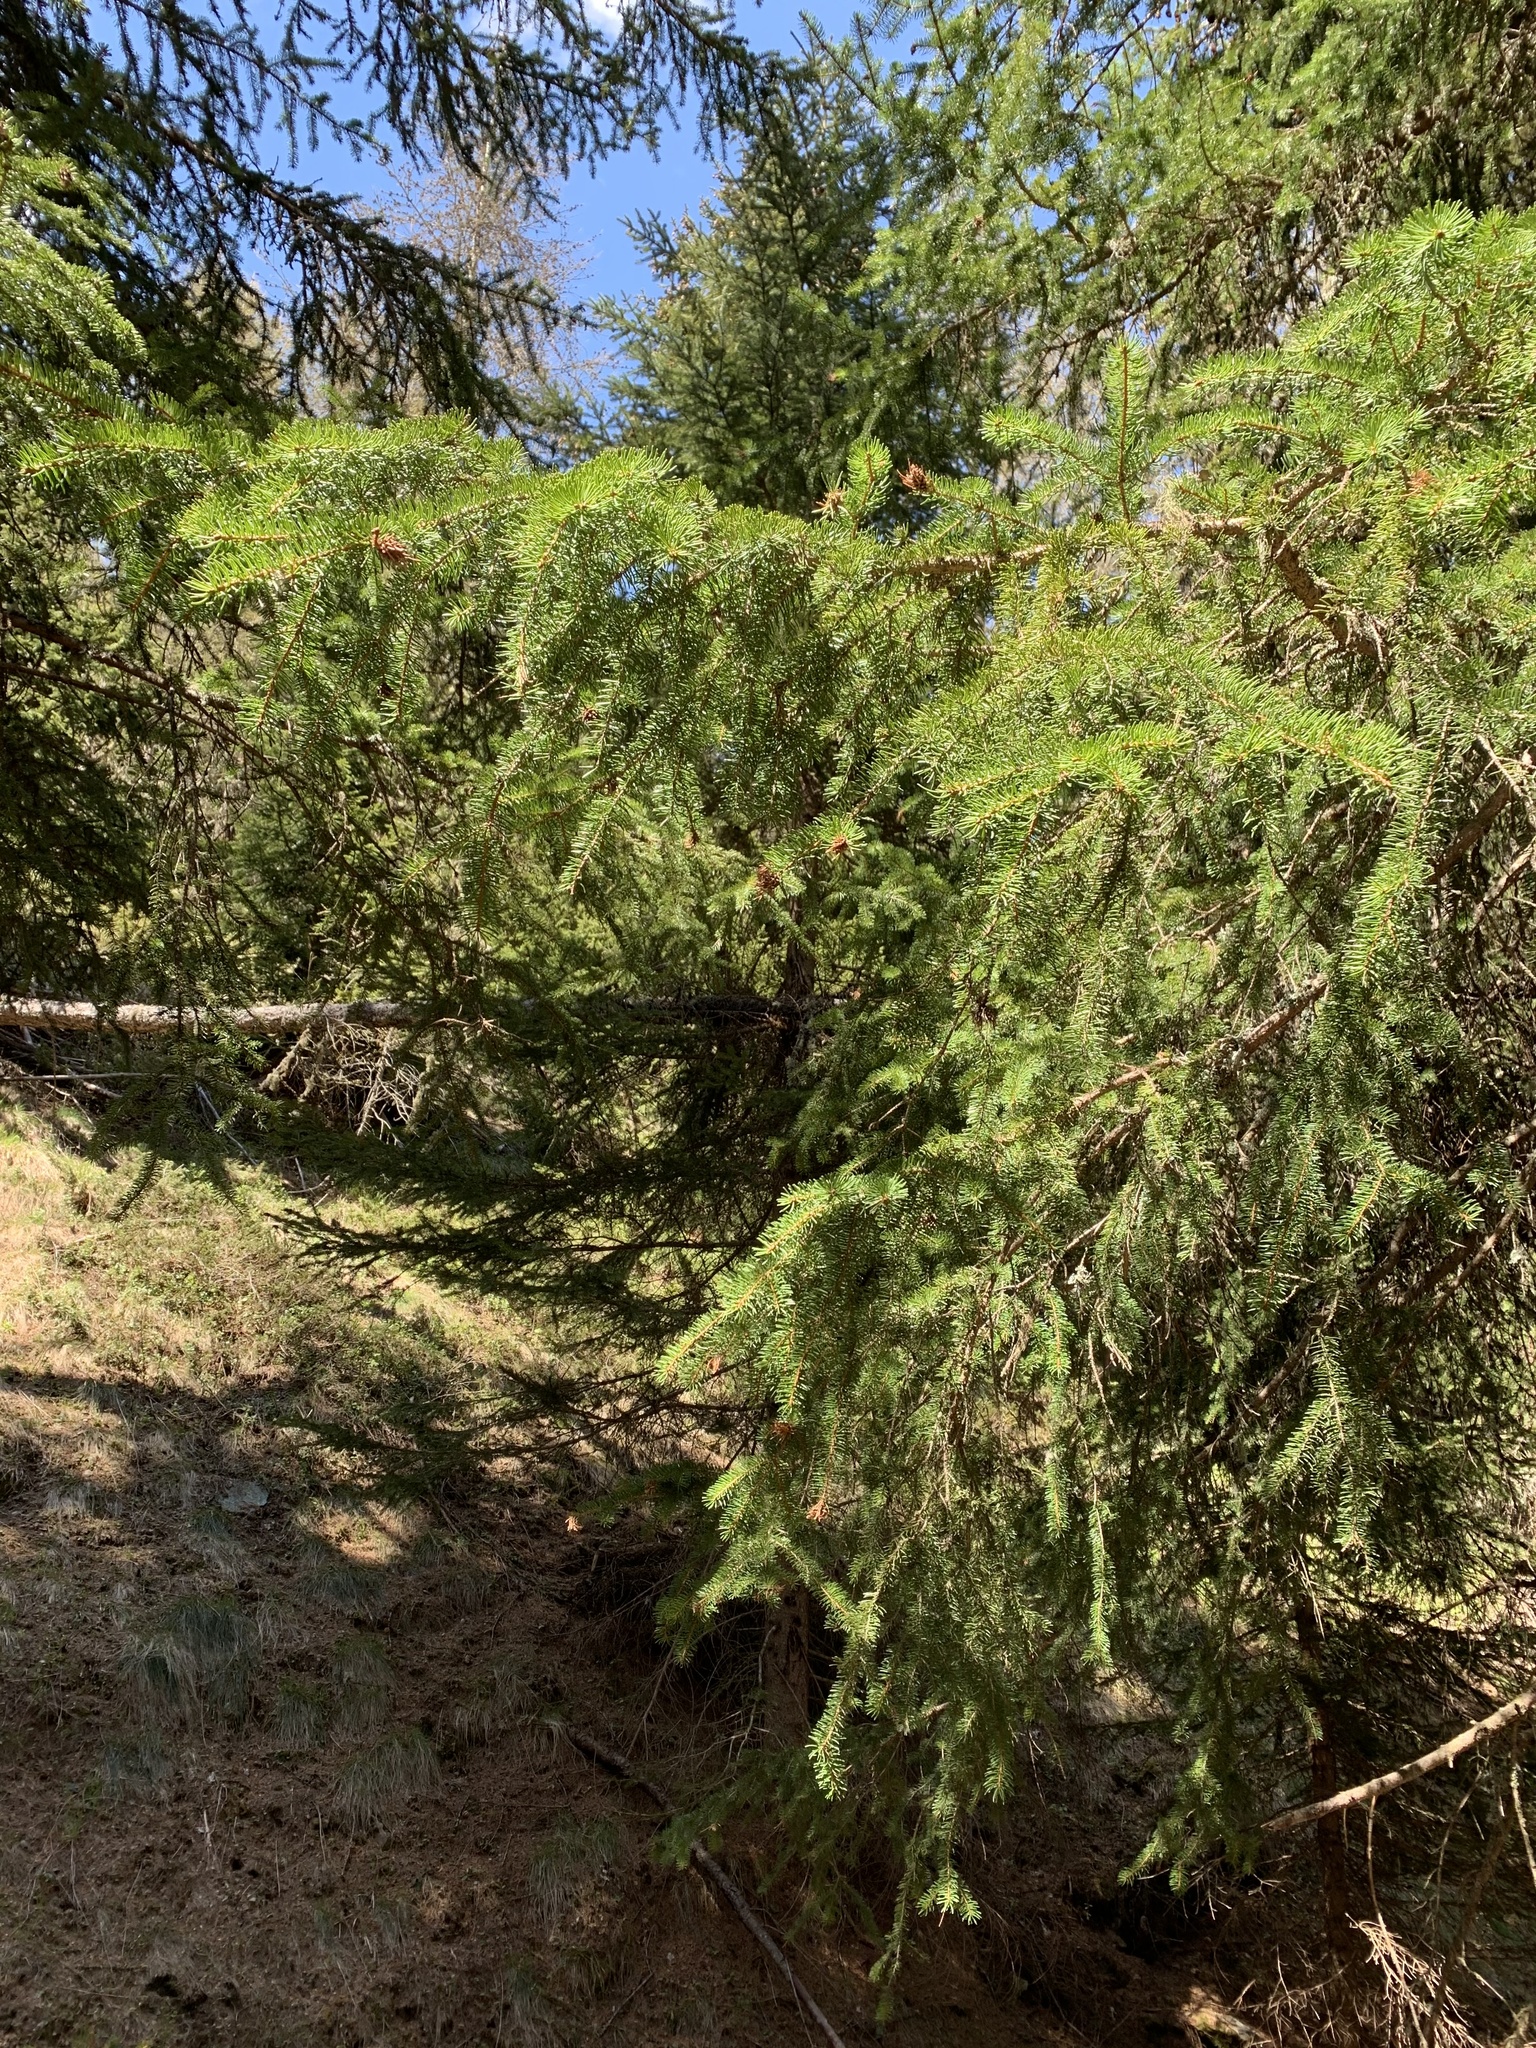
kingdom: Plantae
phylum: Tracheophyta
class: Pinopsida
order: Pinales
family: Pinaceae
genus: Picea
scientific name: Picea abies
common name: Norway spruce
